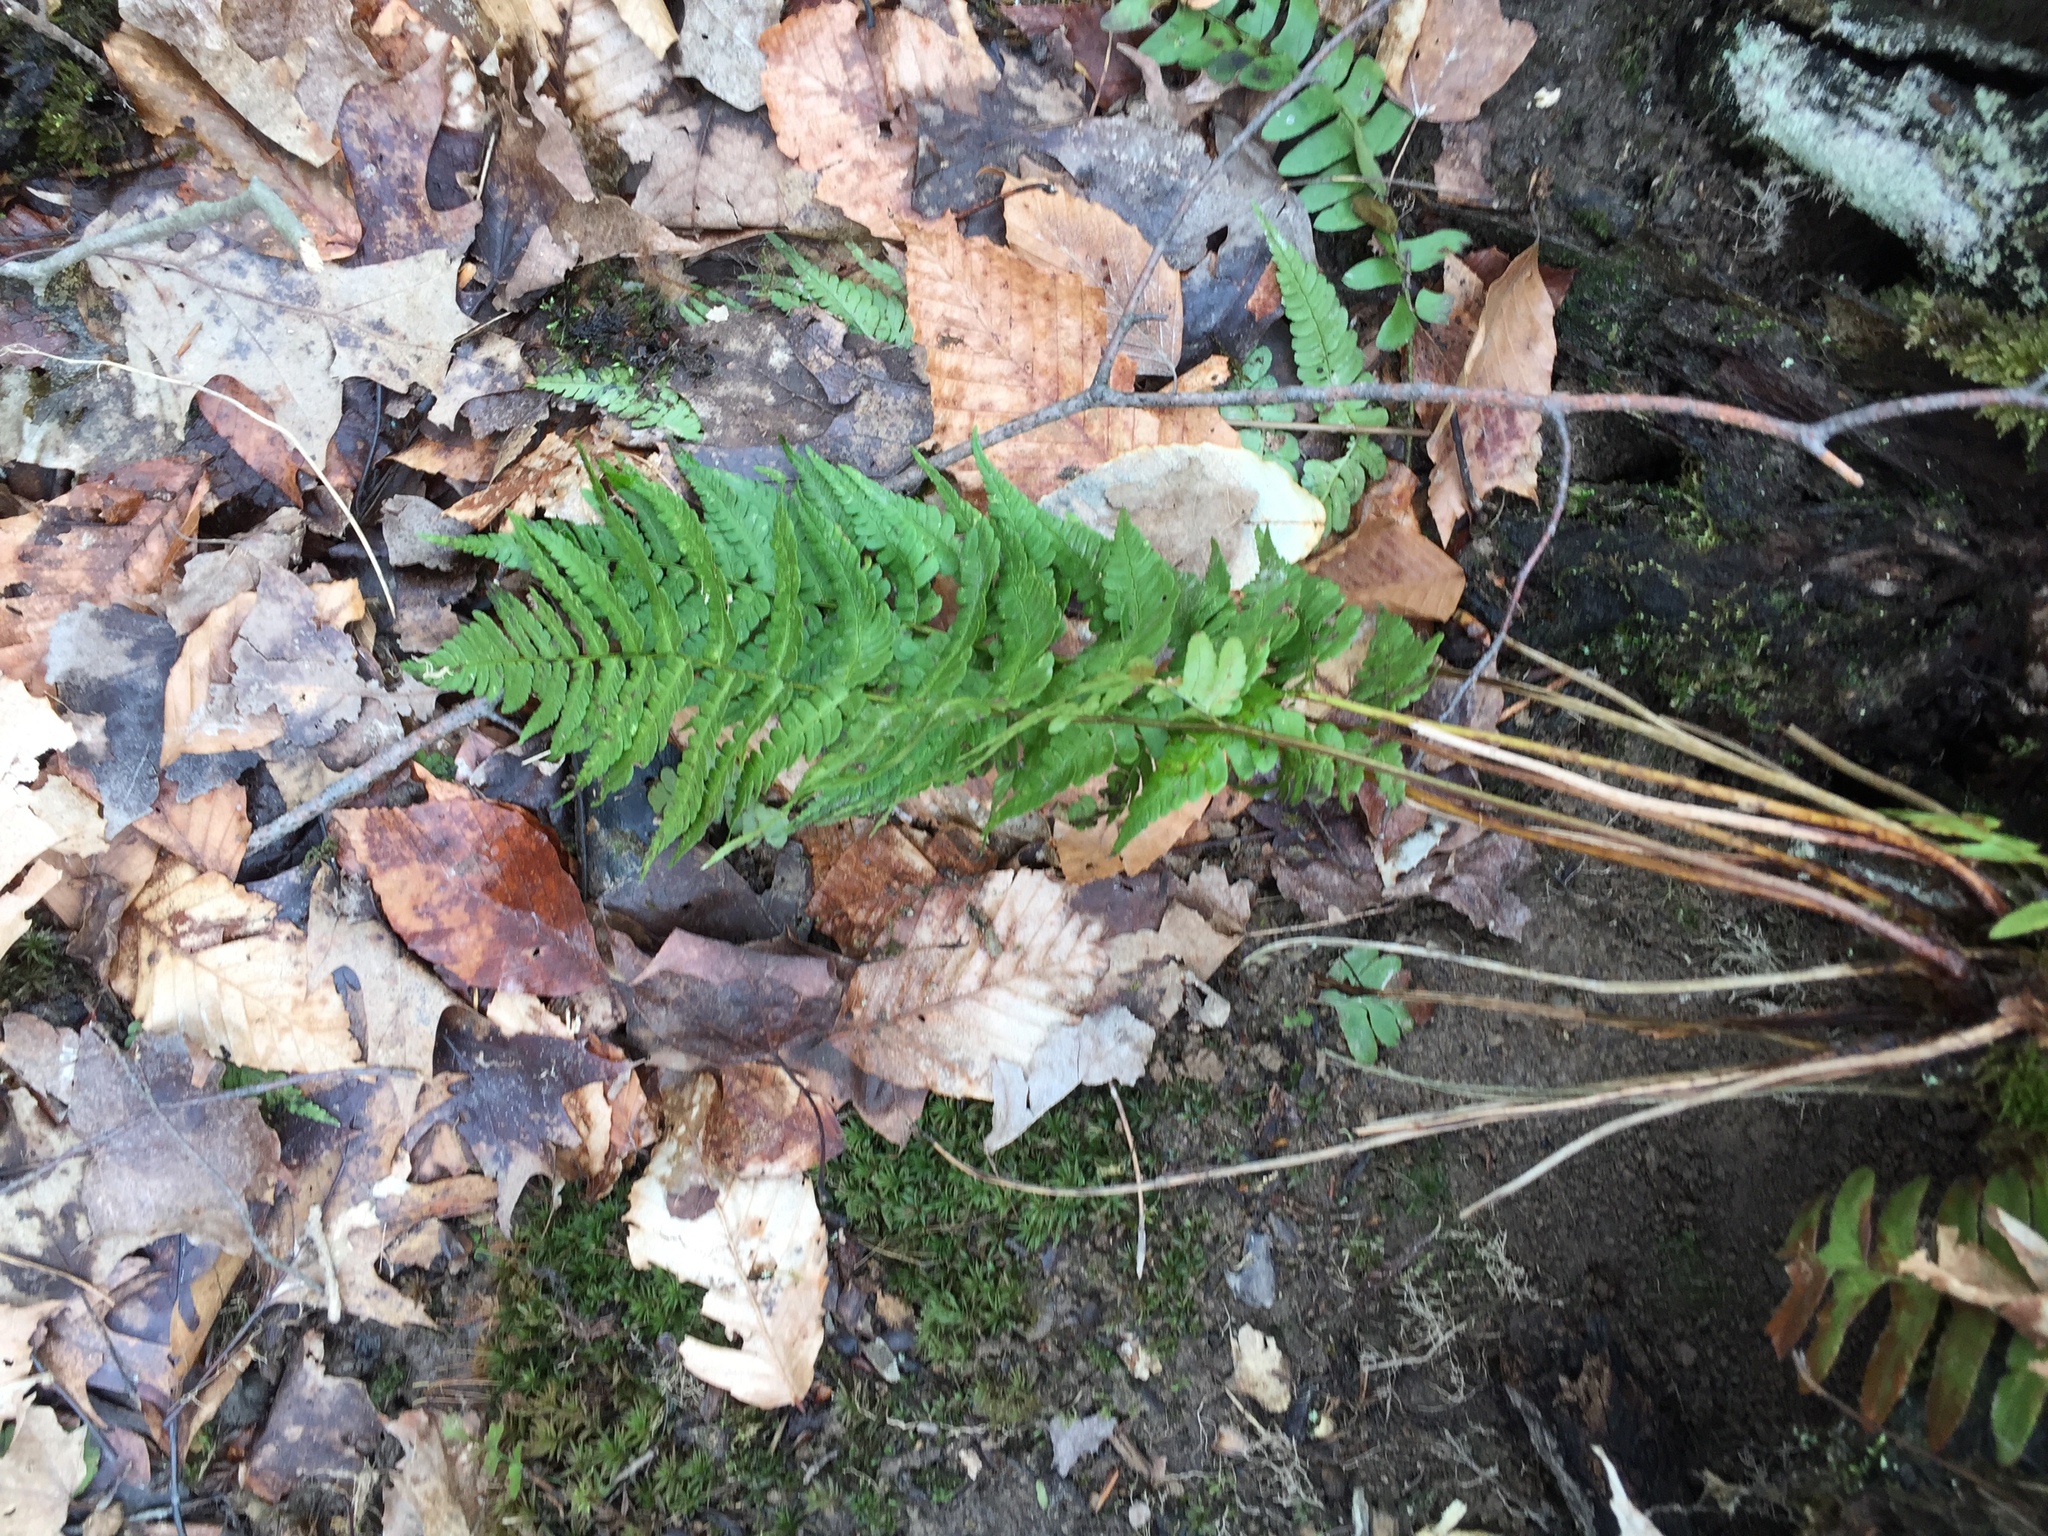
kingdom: Plantae
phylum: Tracheophyta
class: Polypodiopsida
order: Polypodiales
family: Dryopteridaceae
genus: Dryopteris
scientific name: Dryopteris marginalis
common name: Marginal wood fern
